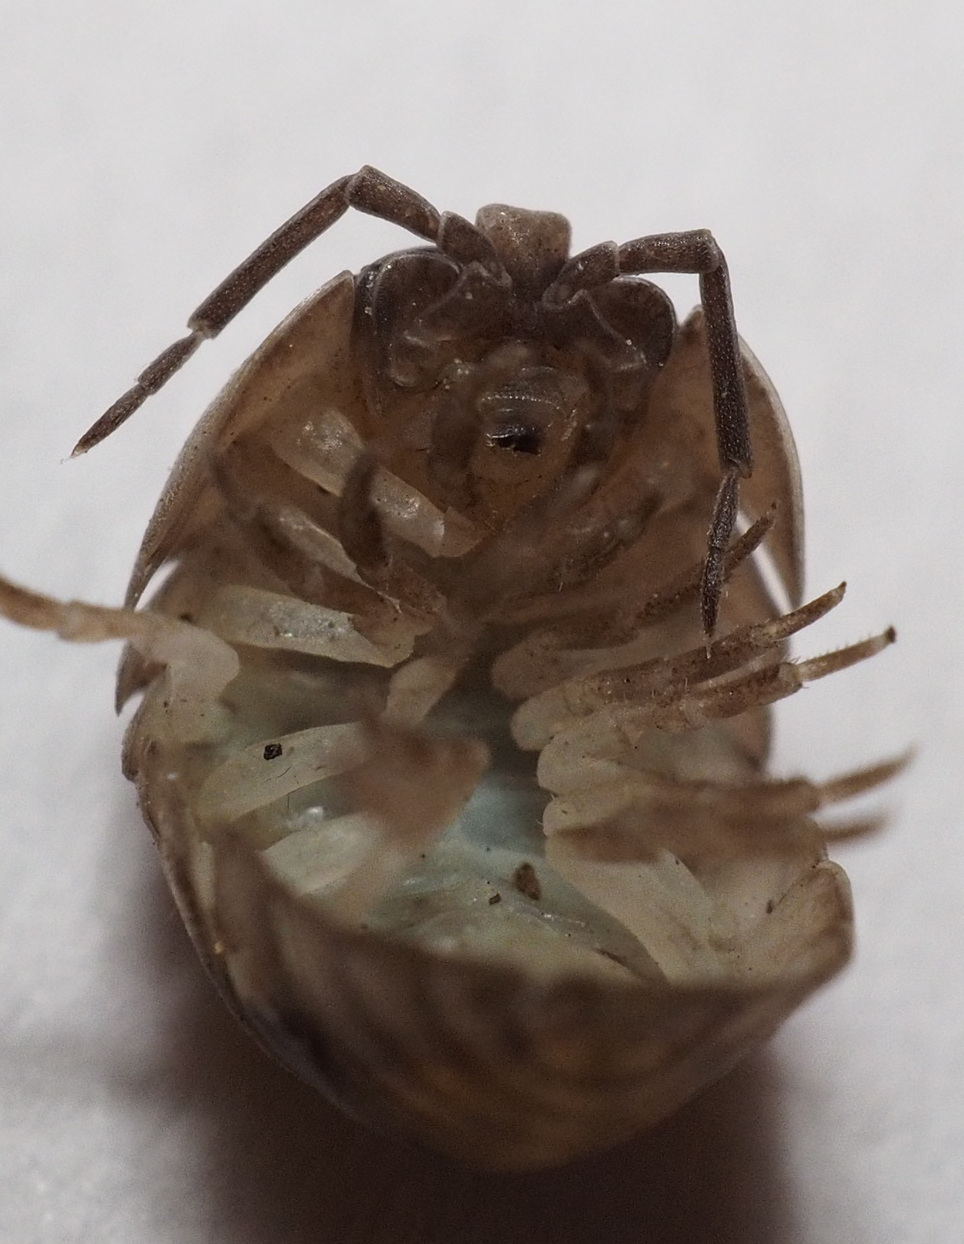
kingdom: Animalia
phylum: Arthropoda
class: Malacostraca
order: Isopoda
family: Armadillidiidae
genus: Armadillidium
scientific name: Armadillidium nasatum
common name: Isopod
